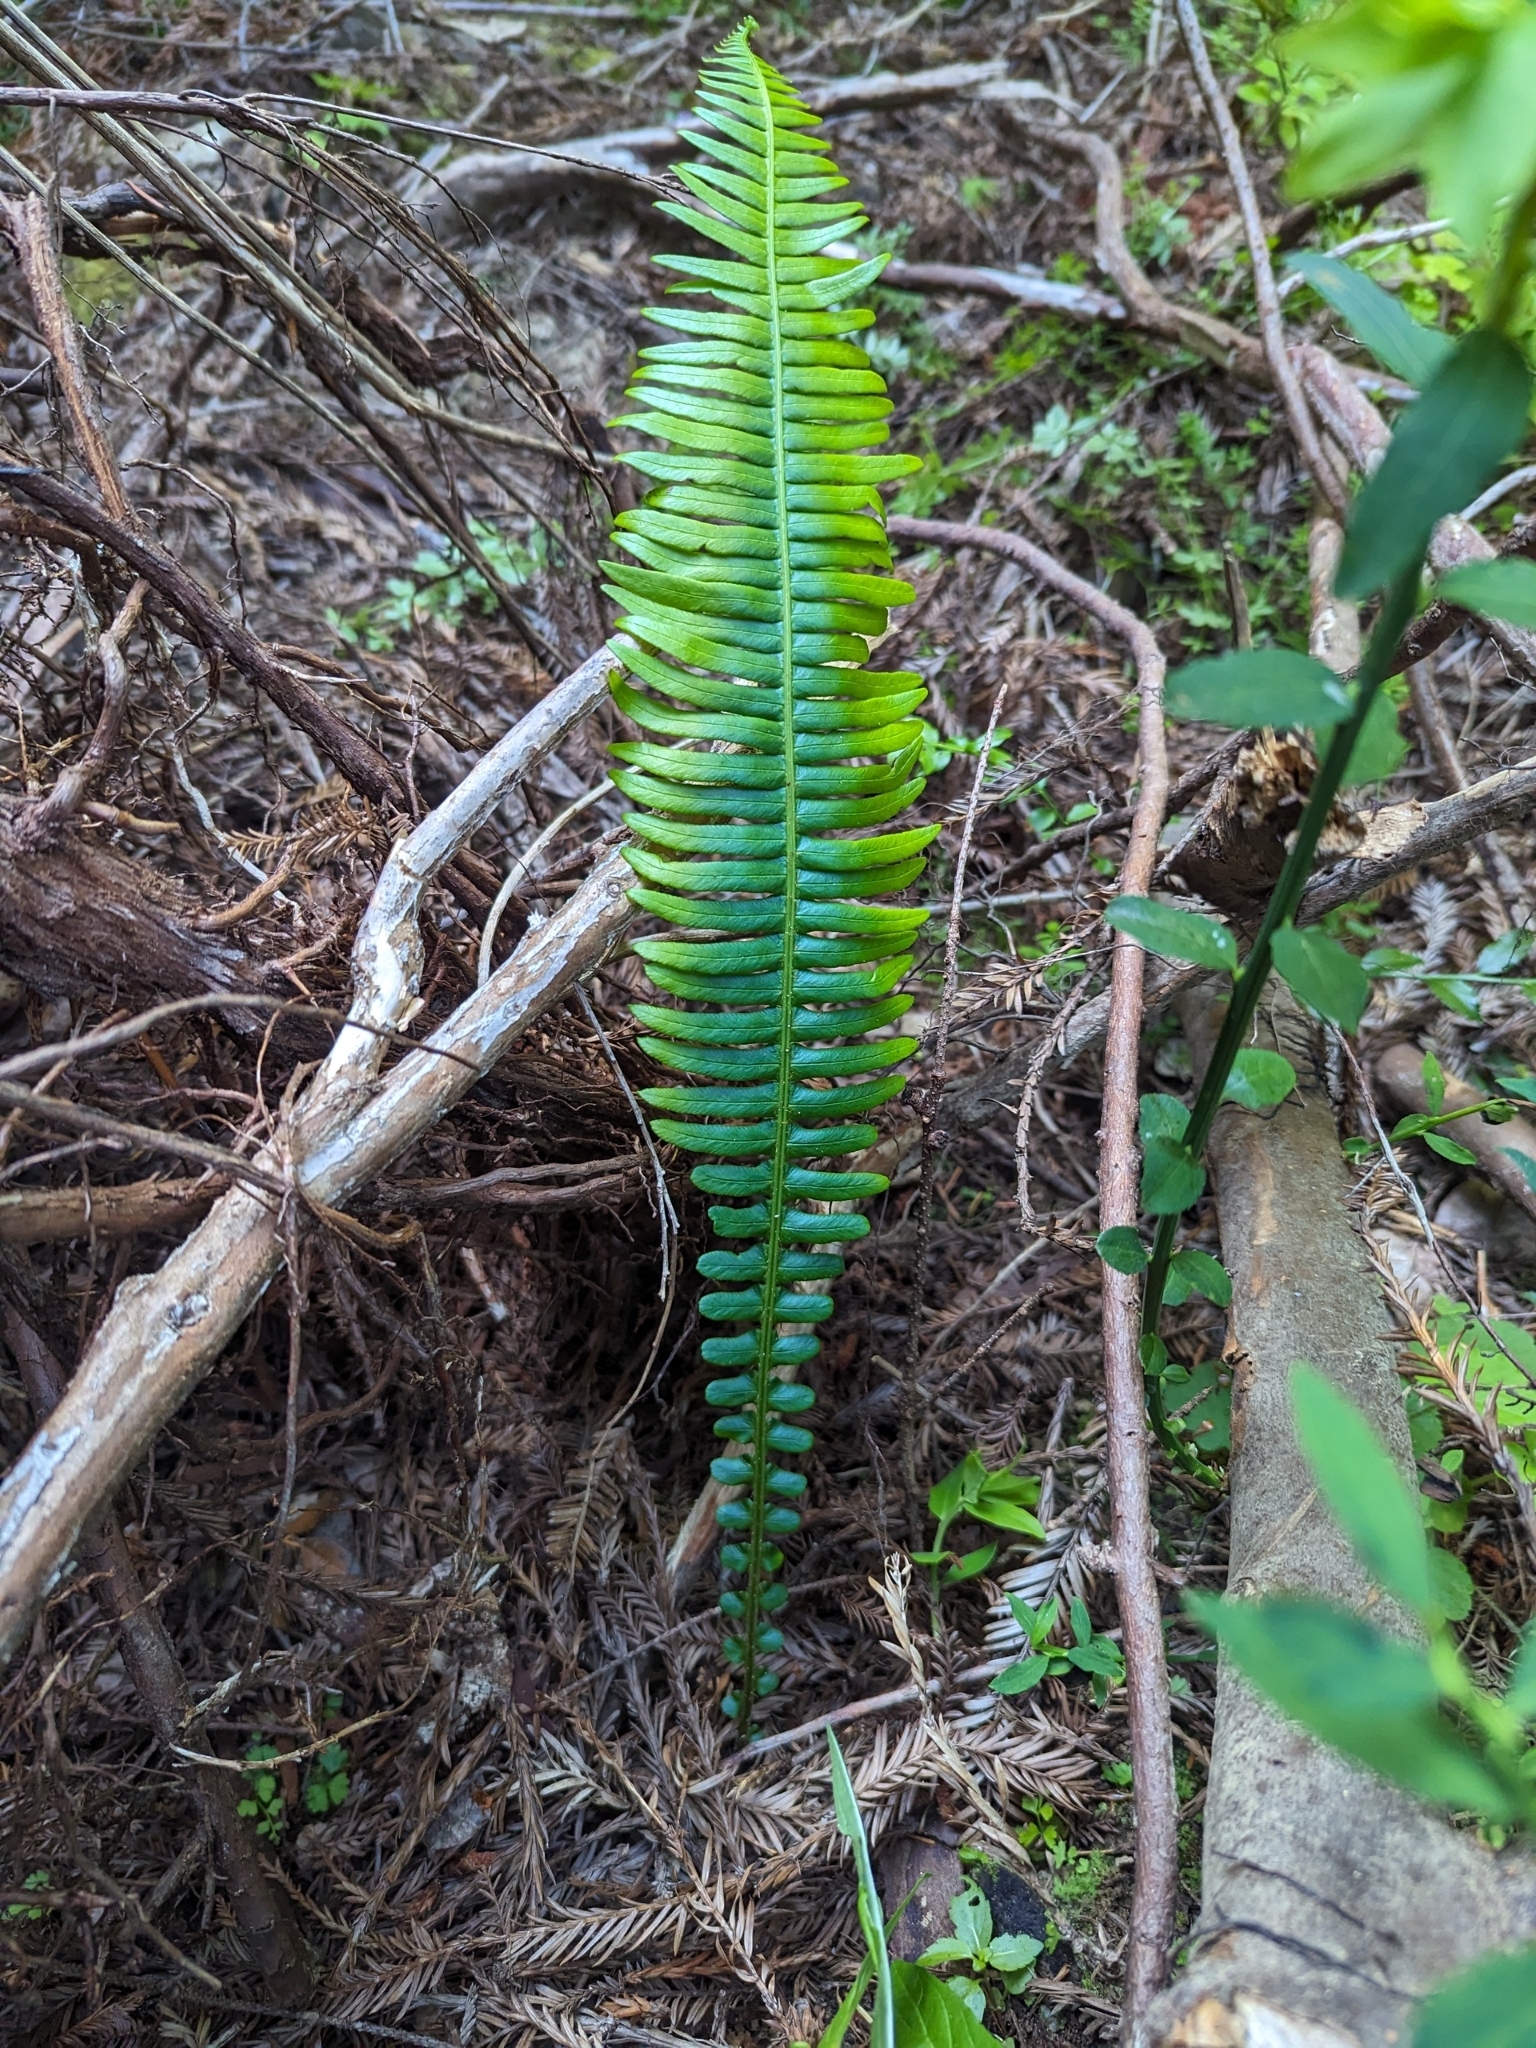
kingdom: Plantae
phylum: Tracheophyta
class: Polypodiopsida
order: Polypodiales
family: Blechnaceae
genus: Struthiopteris
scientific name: Struthiopteris spicant
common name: Deer fern
